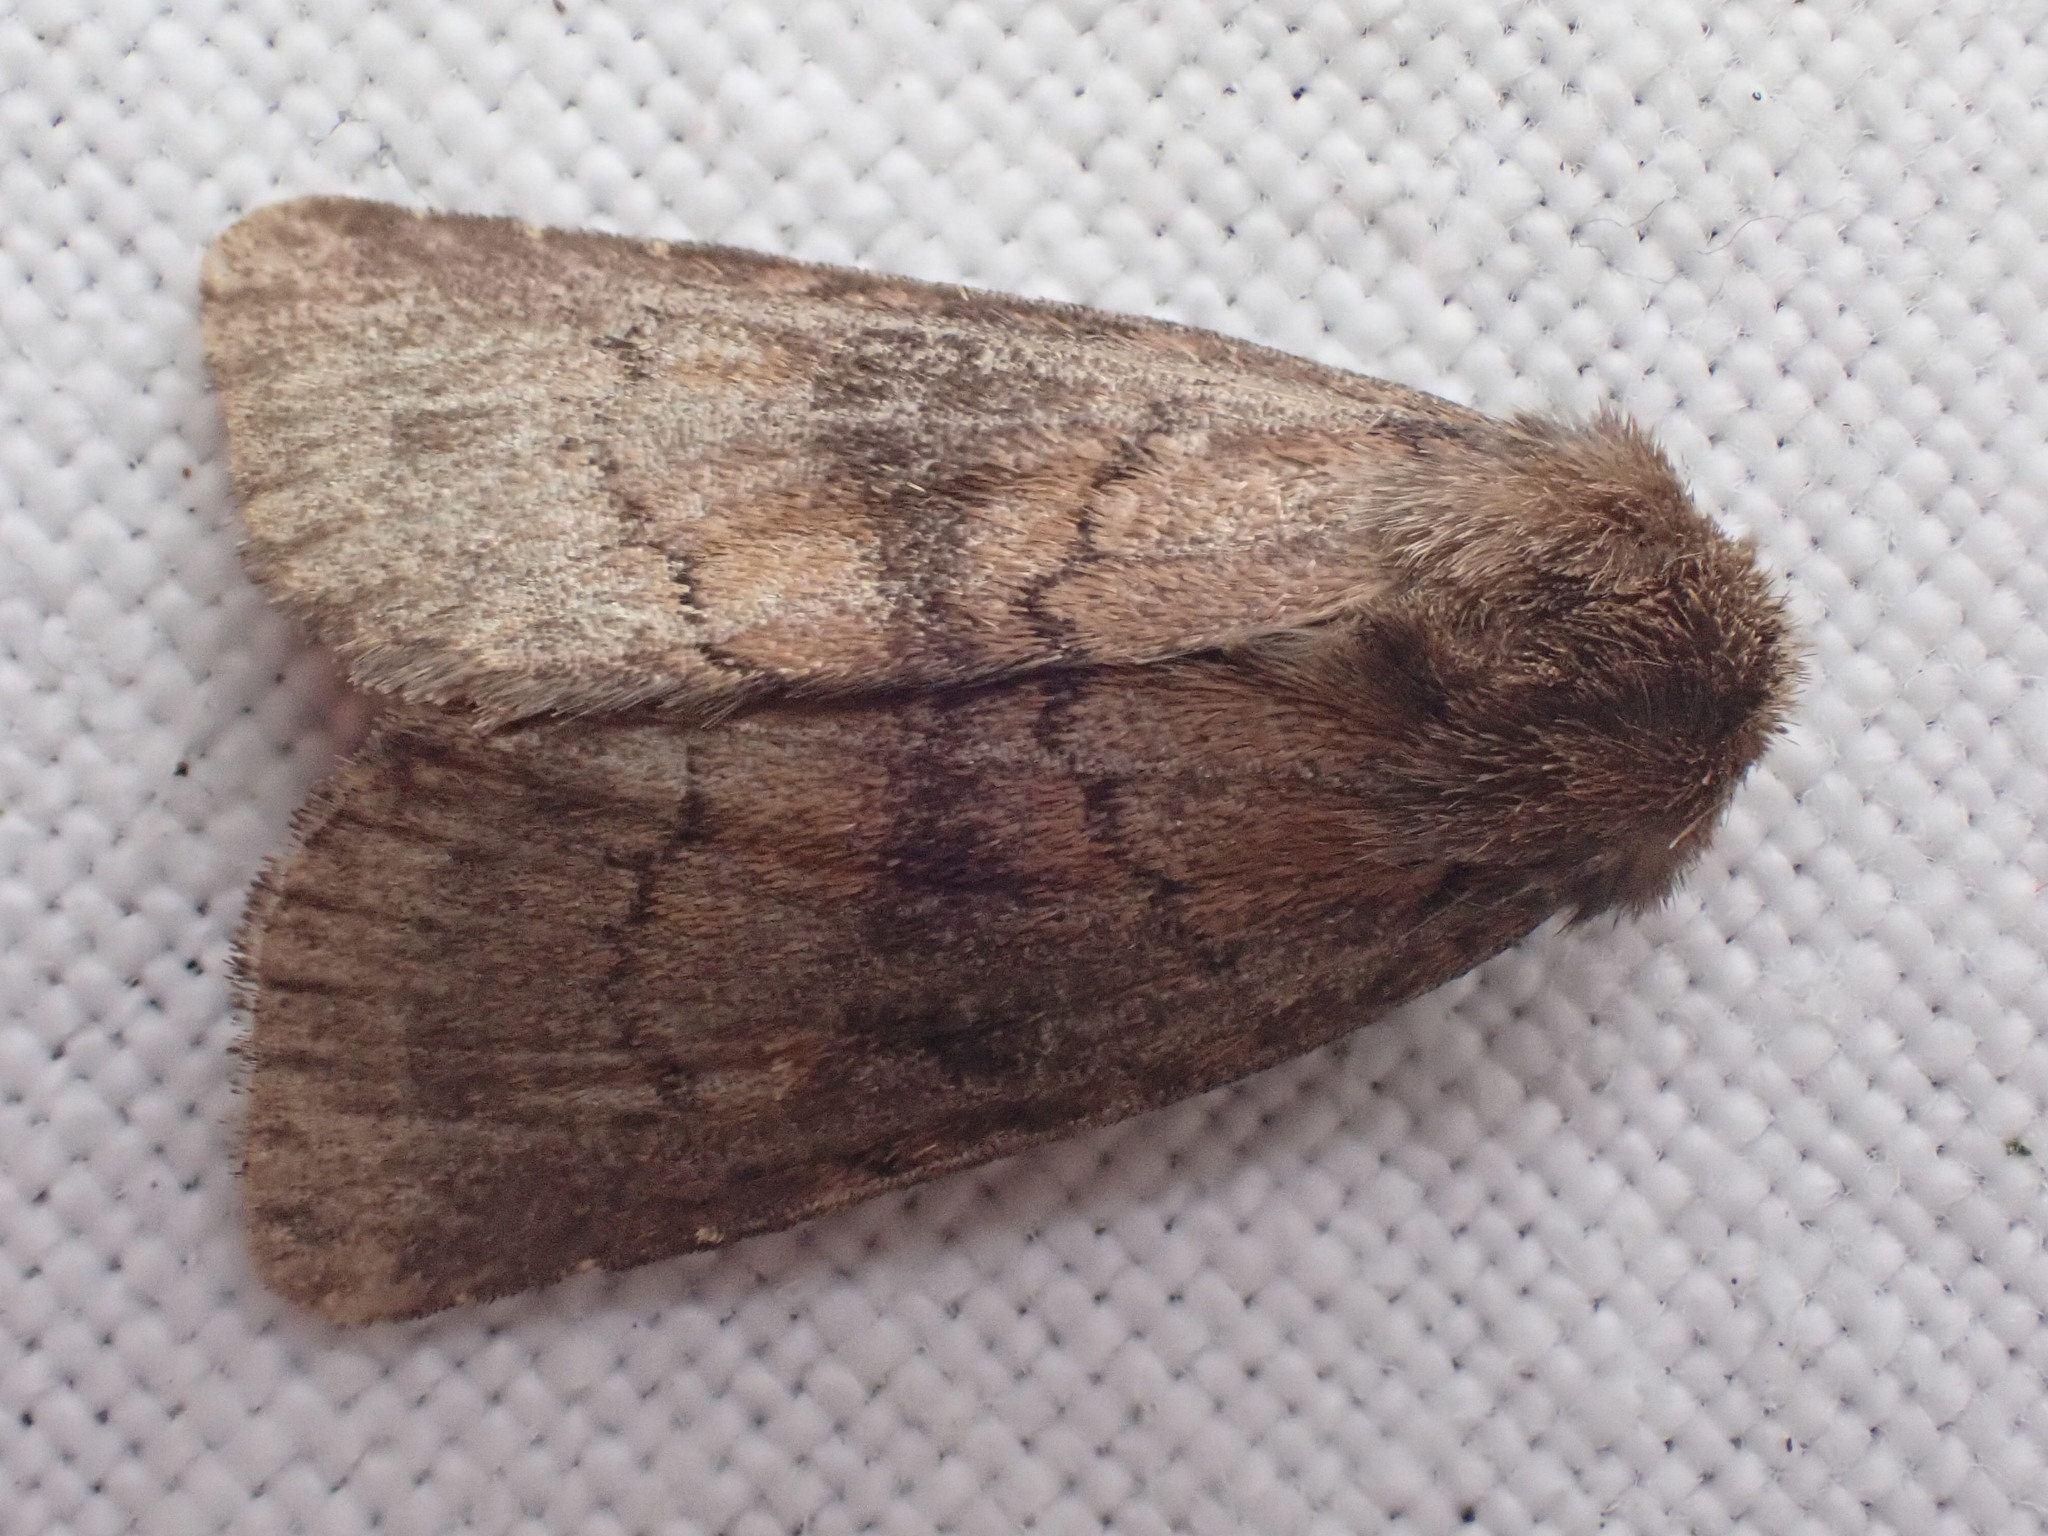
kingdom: Animalia
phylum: Arthropoda
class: Insecta
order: Lepidoptera
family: Noctuidae
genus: Charanyca
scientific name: Charanyca ferruginea
